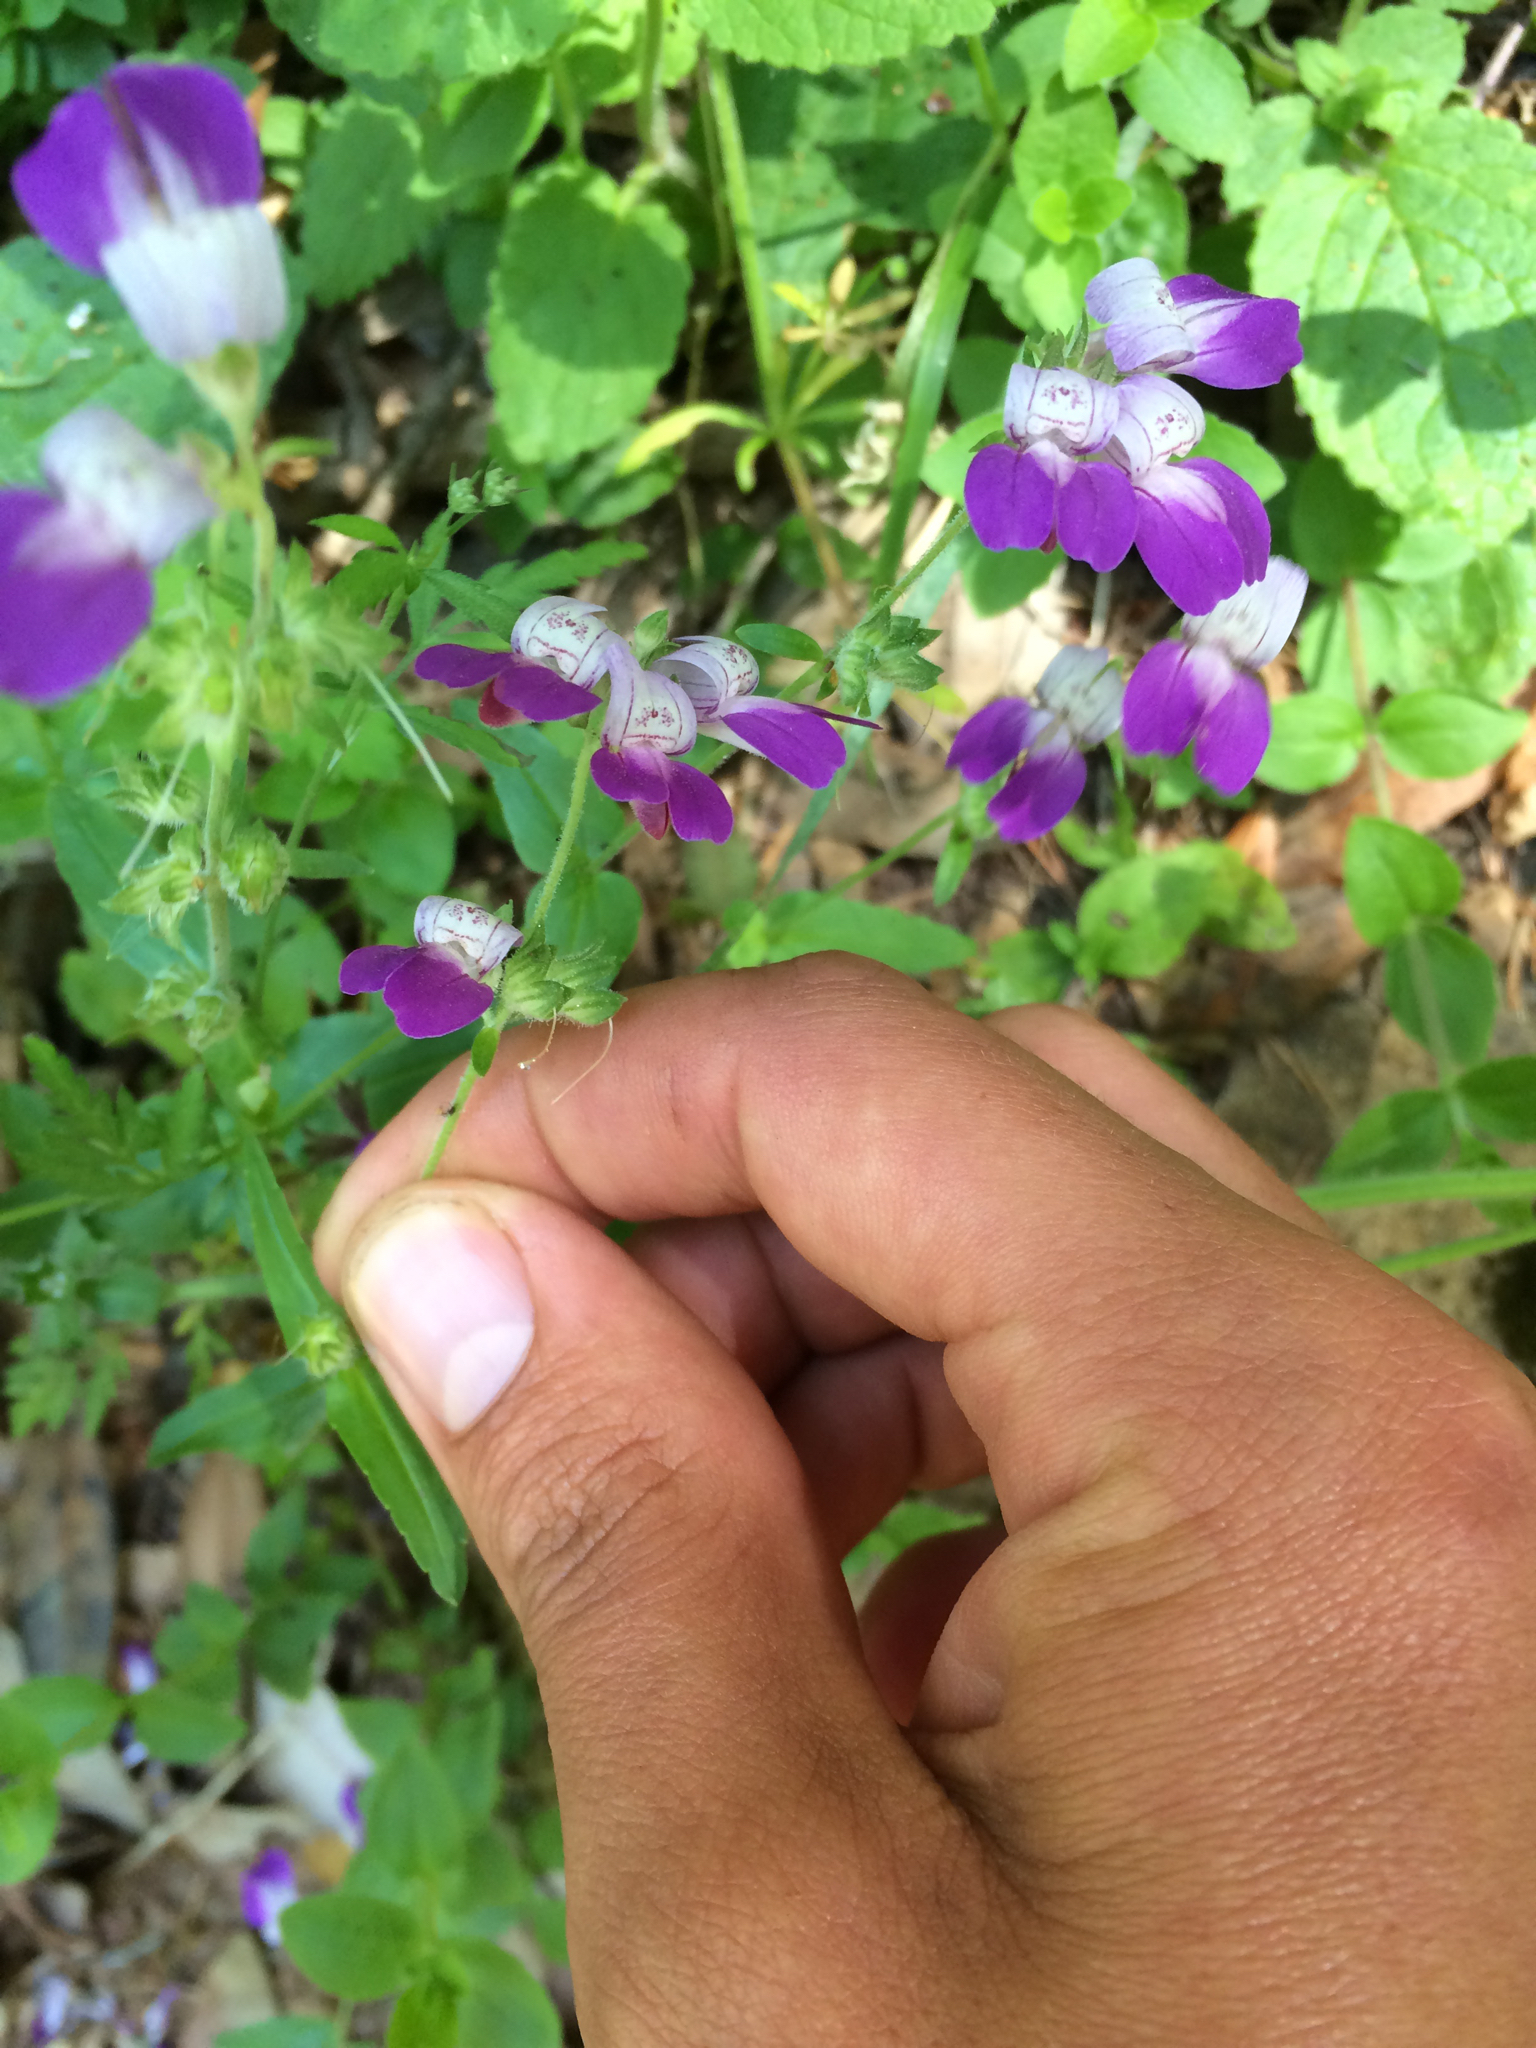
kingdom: Plantae
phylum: Tracheophyta
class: Magnoliopsida
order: Lamiales
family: Plantaginaceae
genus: Collinsia
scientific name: Collinsia heterophylla
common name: Chinese-houses
